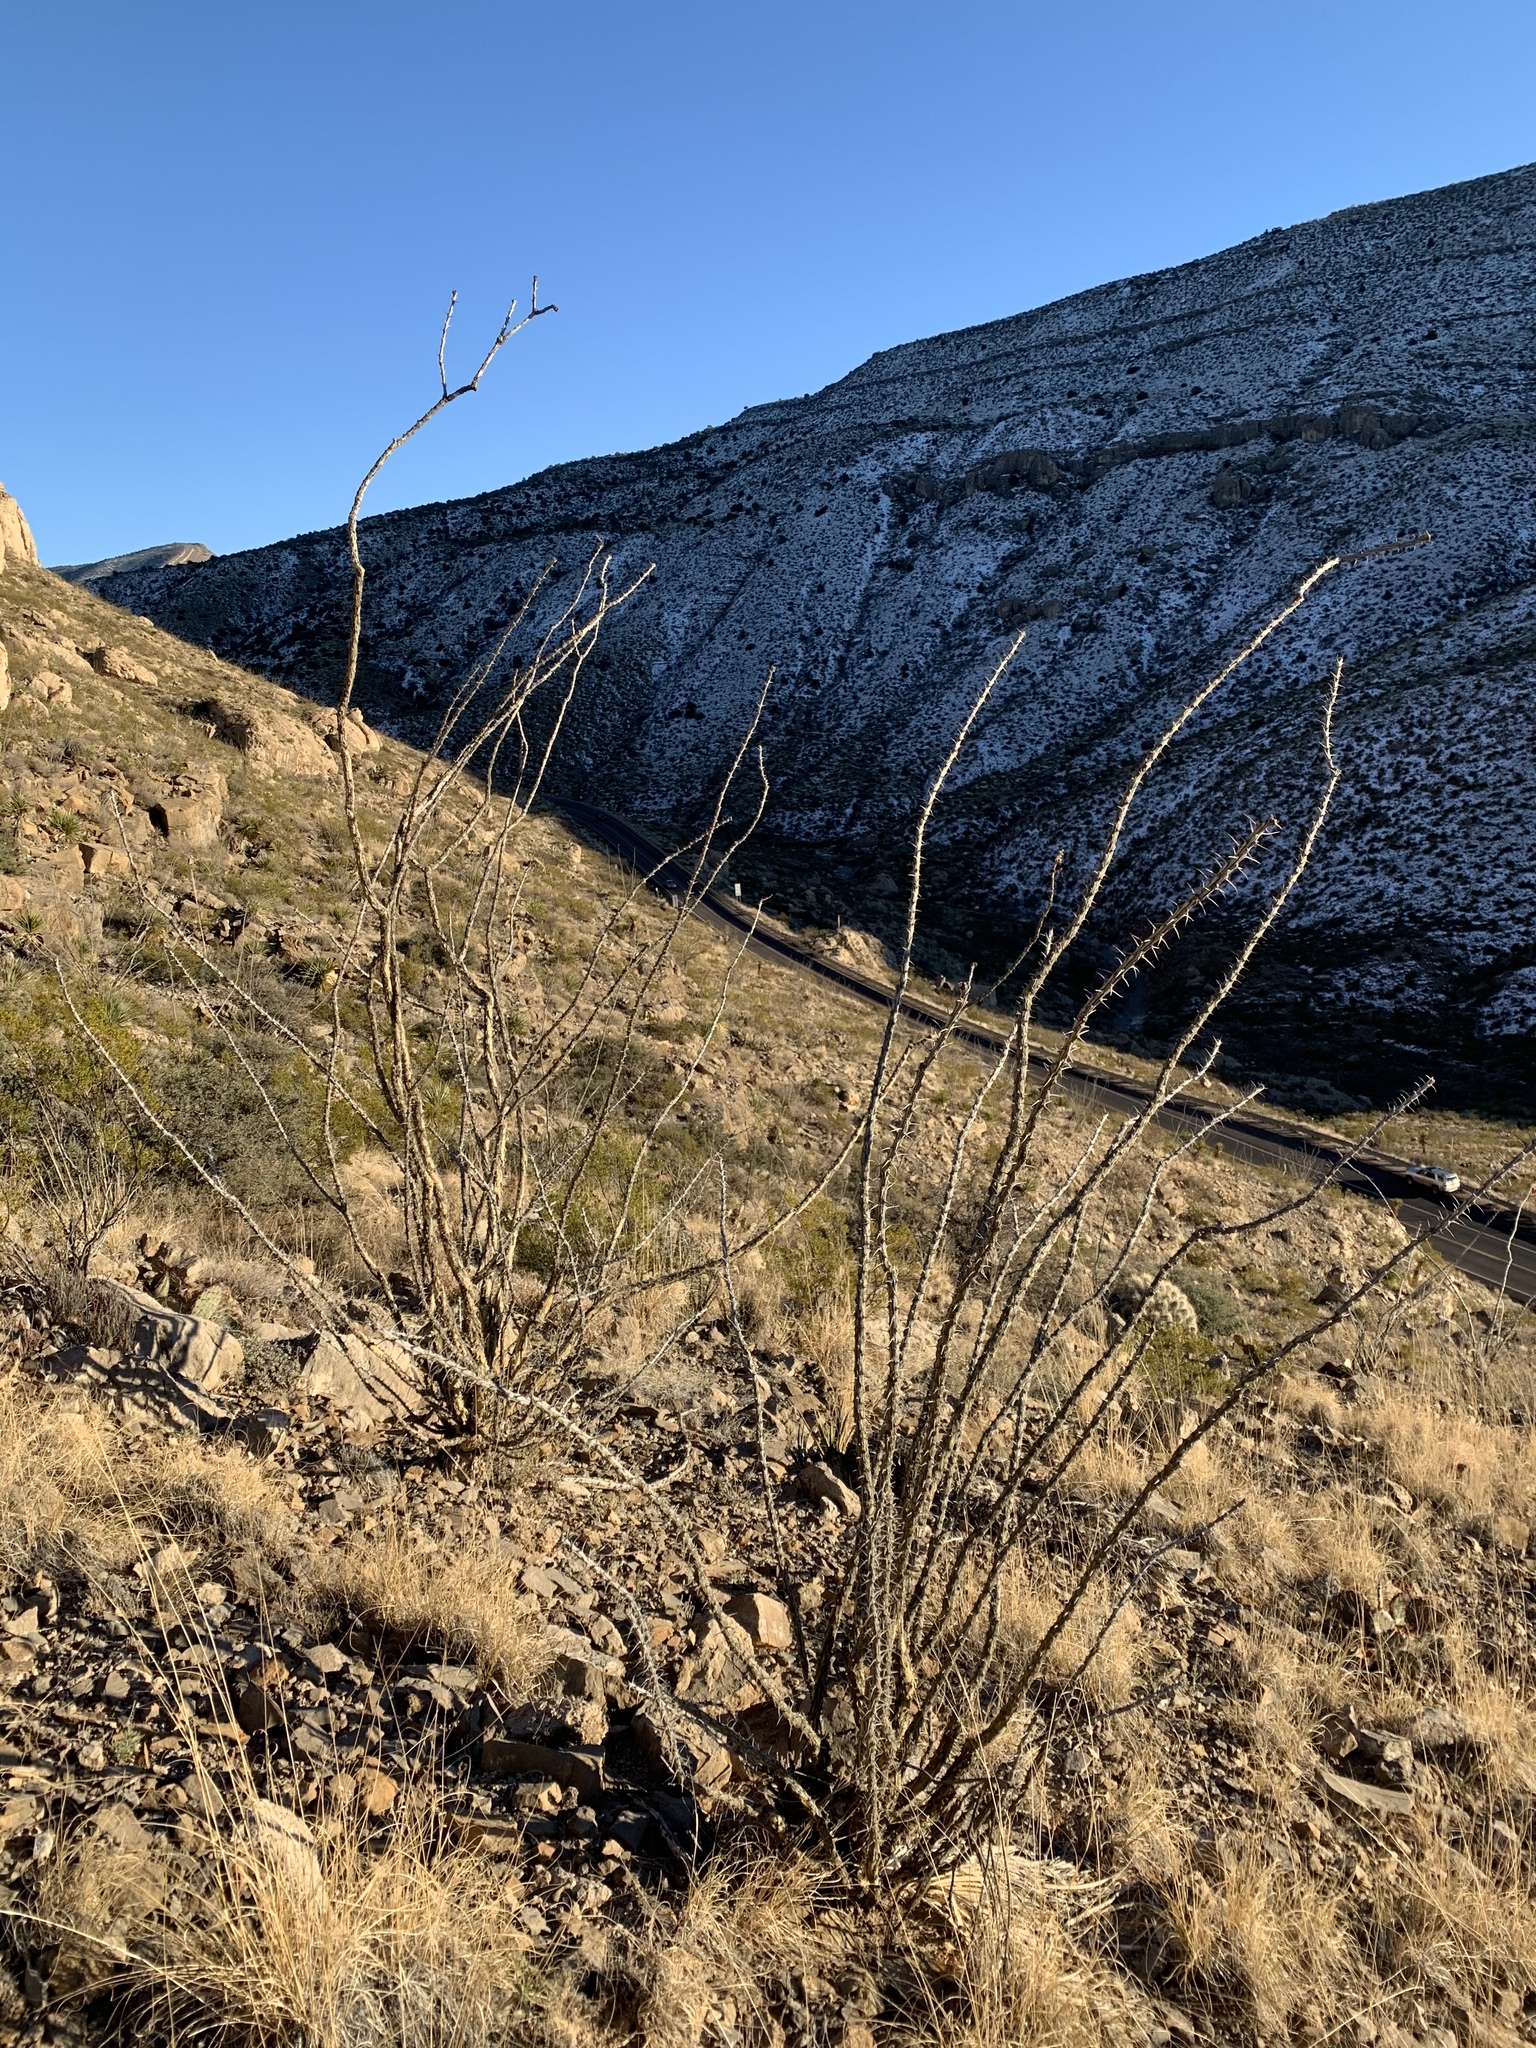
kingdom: Plantae
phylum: Tracheophyta
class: Magnoliopsida
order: Ericales
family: Fouquieriaceae
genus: Fouquieria
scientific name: Fouquieria splendens
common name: Vine-cactus
